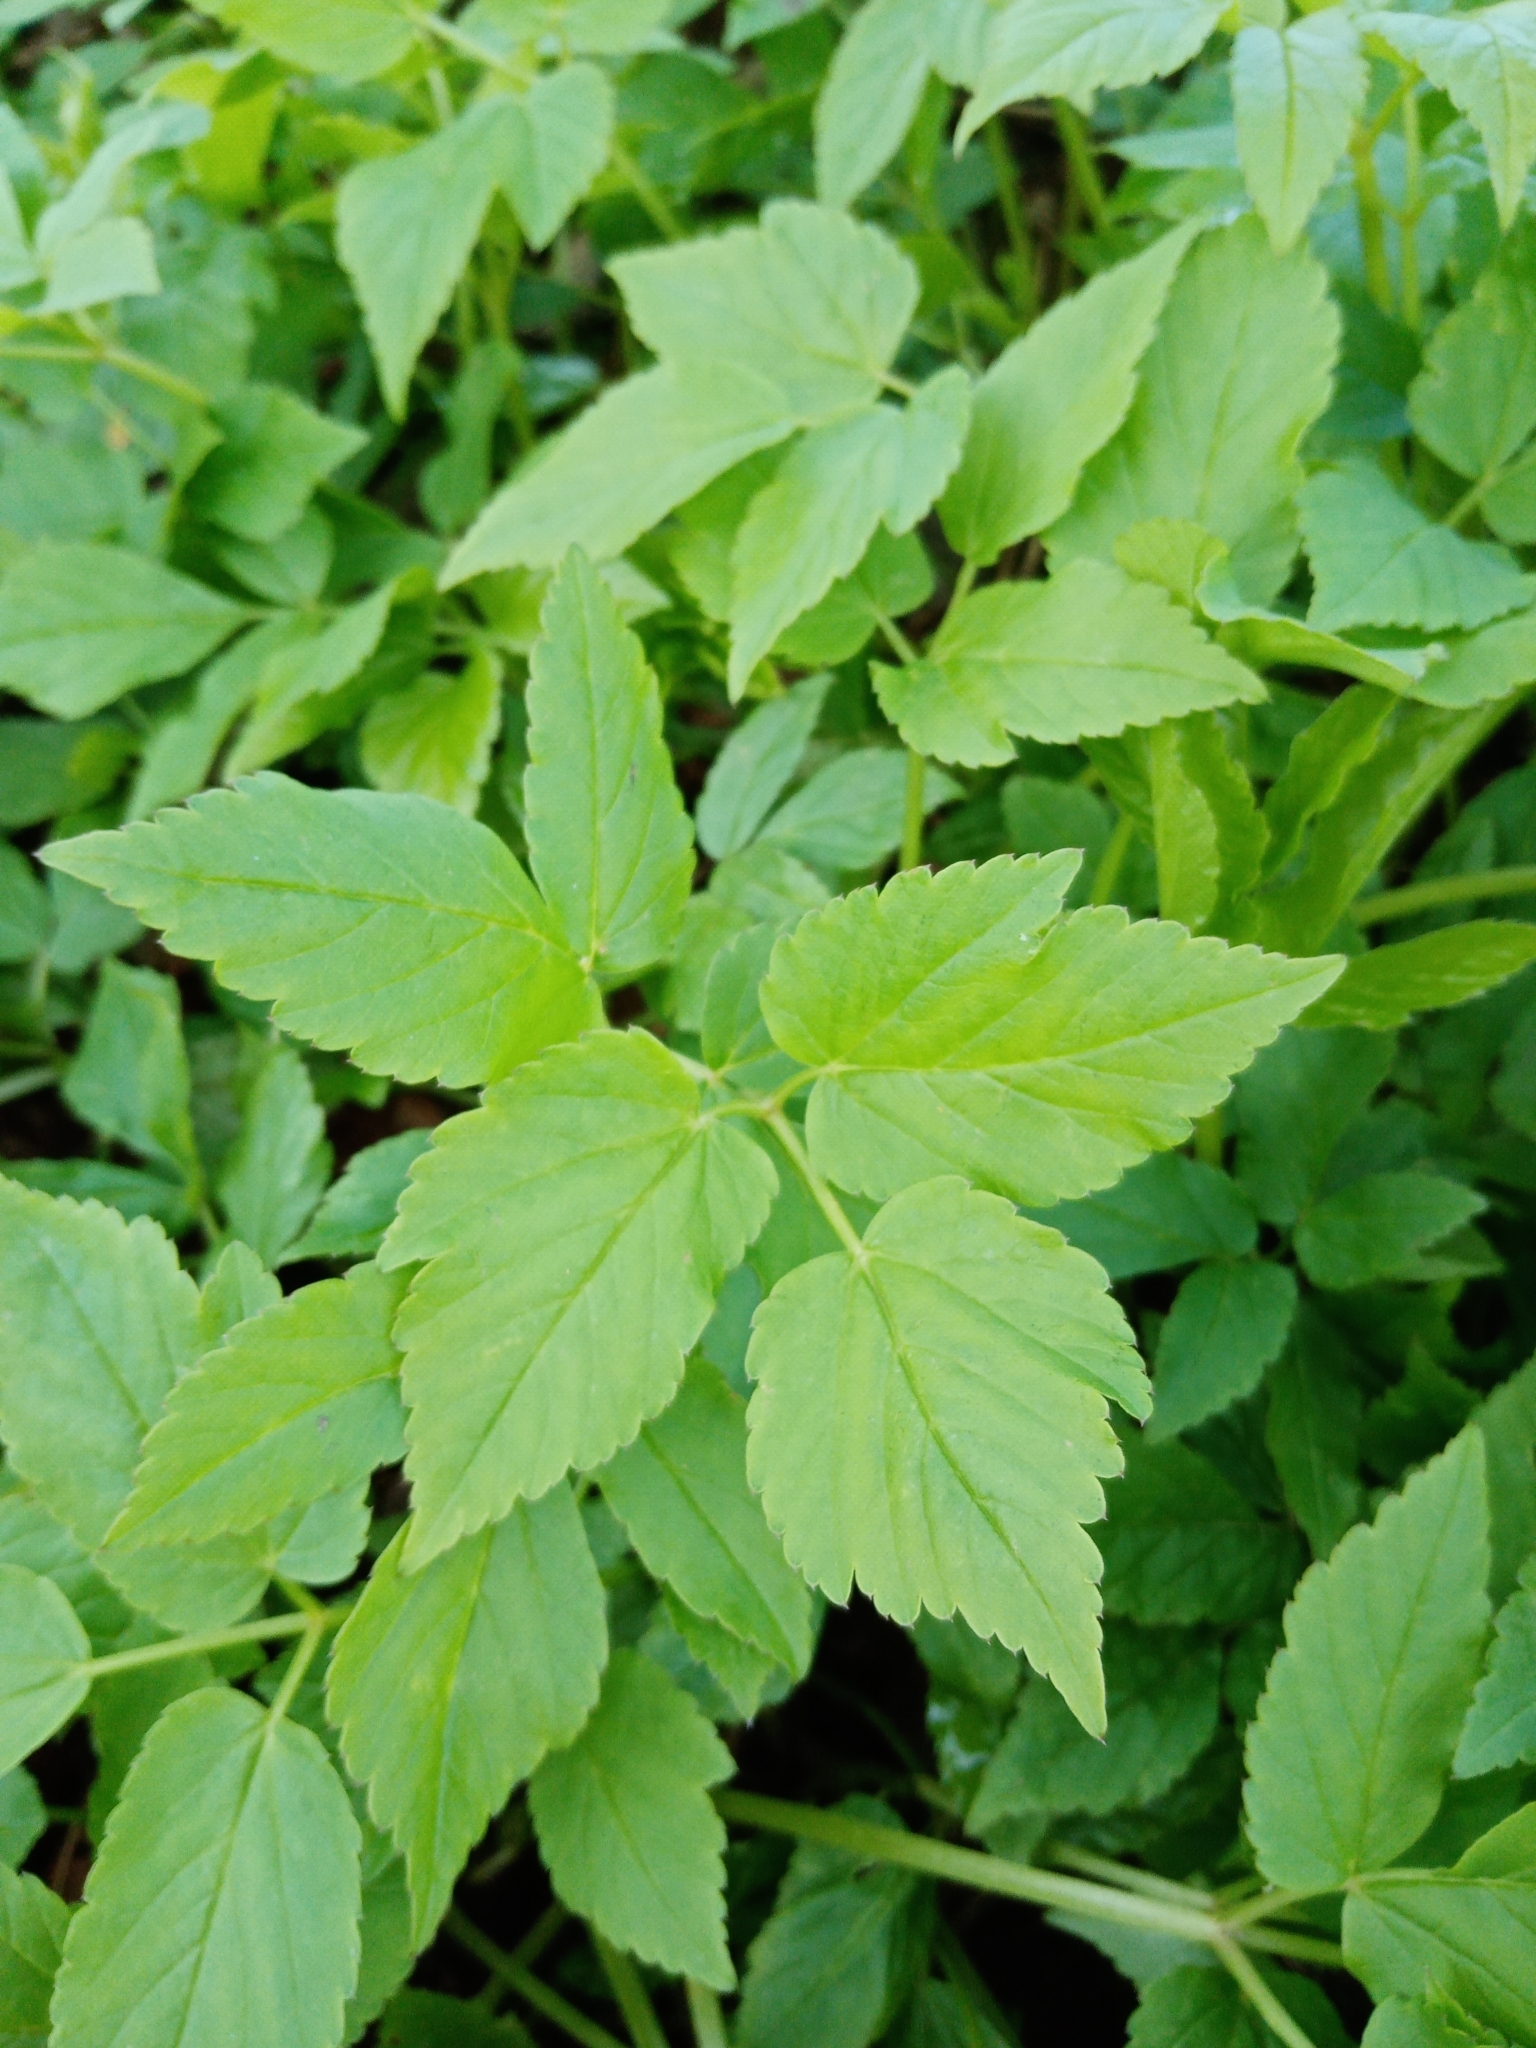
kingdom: Plantae
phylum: Tracheophyta
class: Magnoliopsida
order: Apiales
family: Apiaceae
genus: Aegopodium
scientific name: Aegopodium podagraria
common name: Ground-elder
